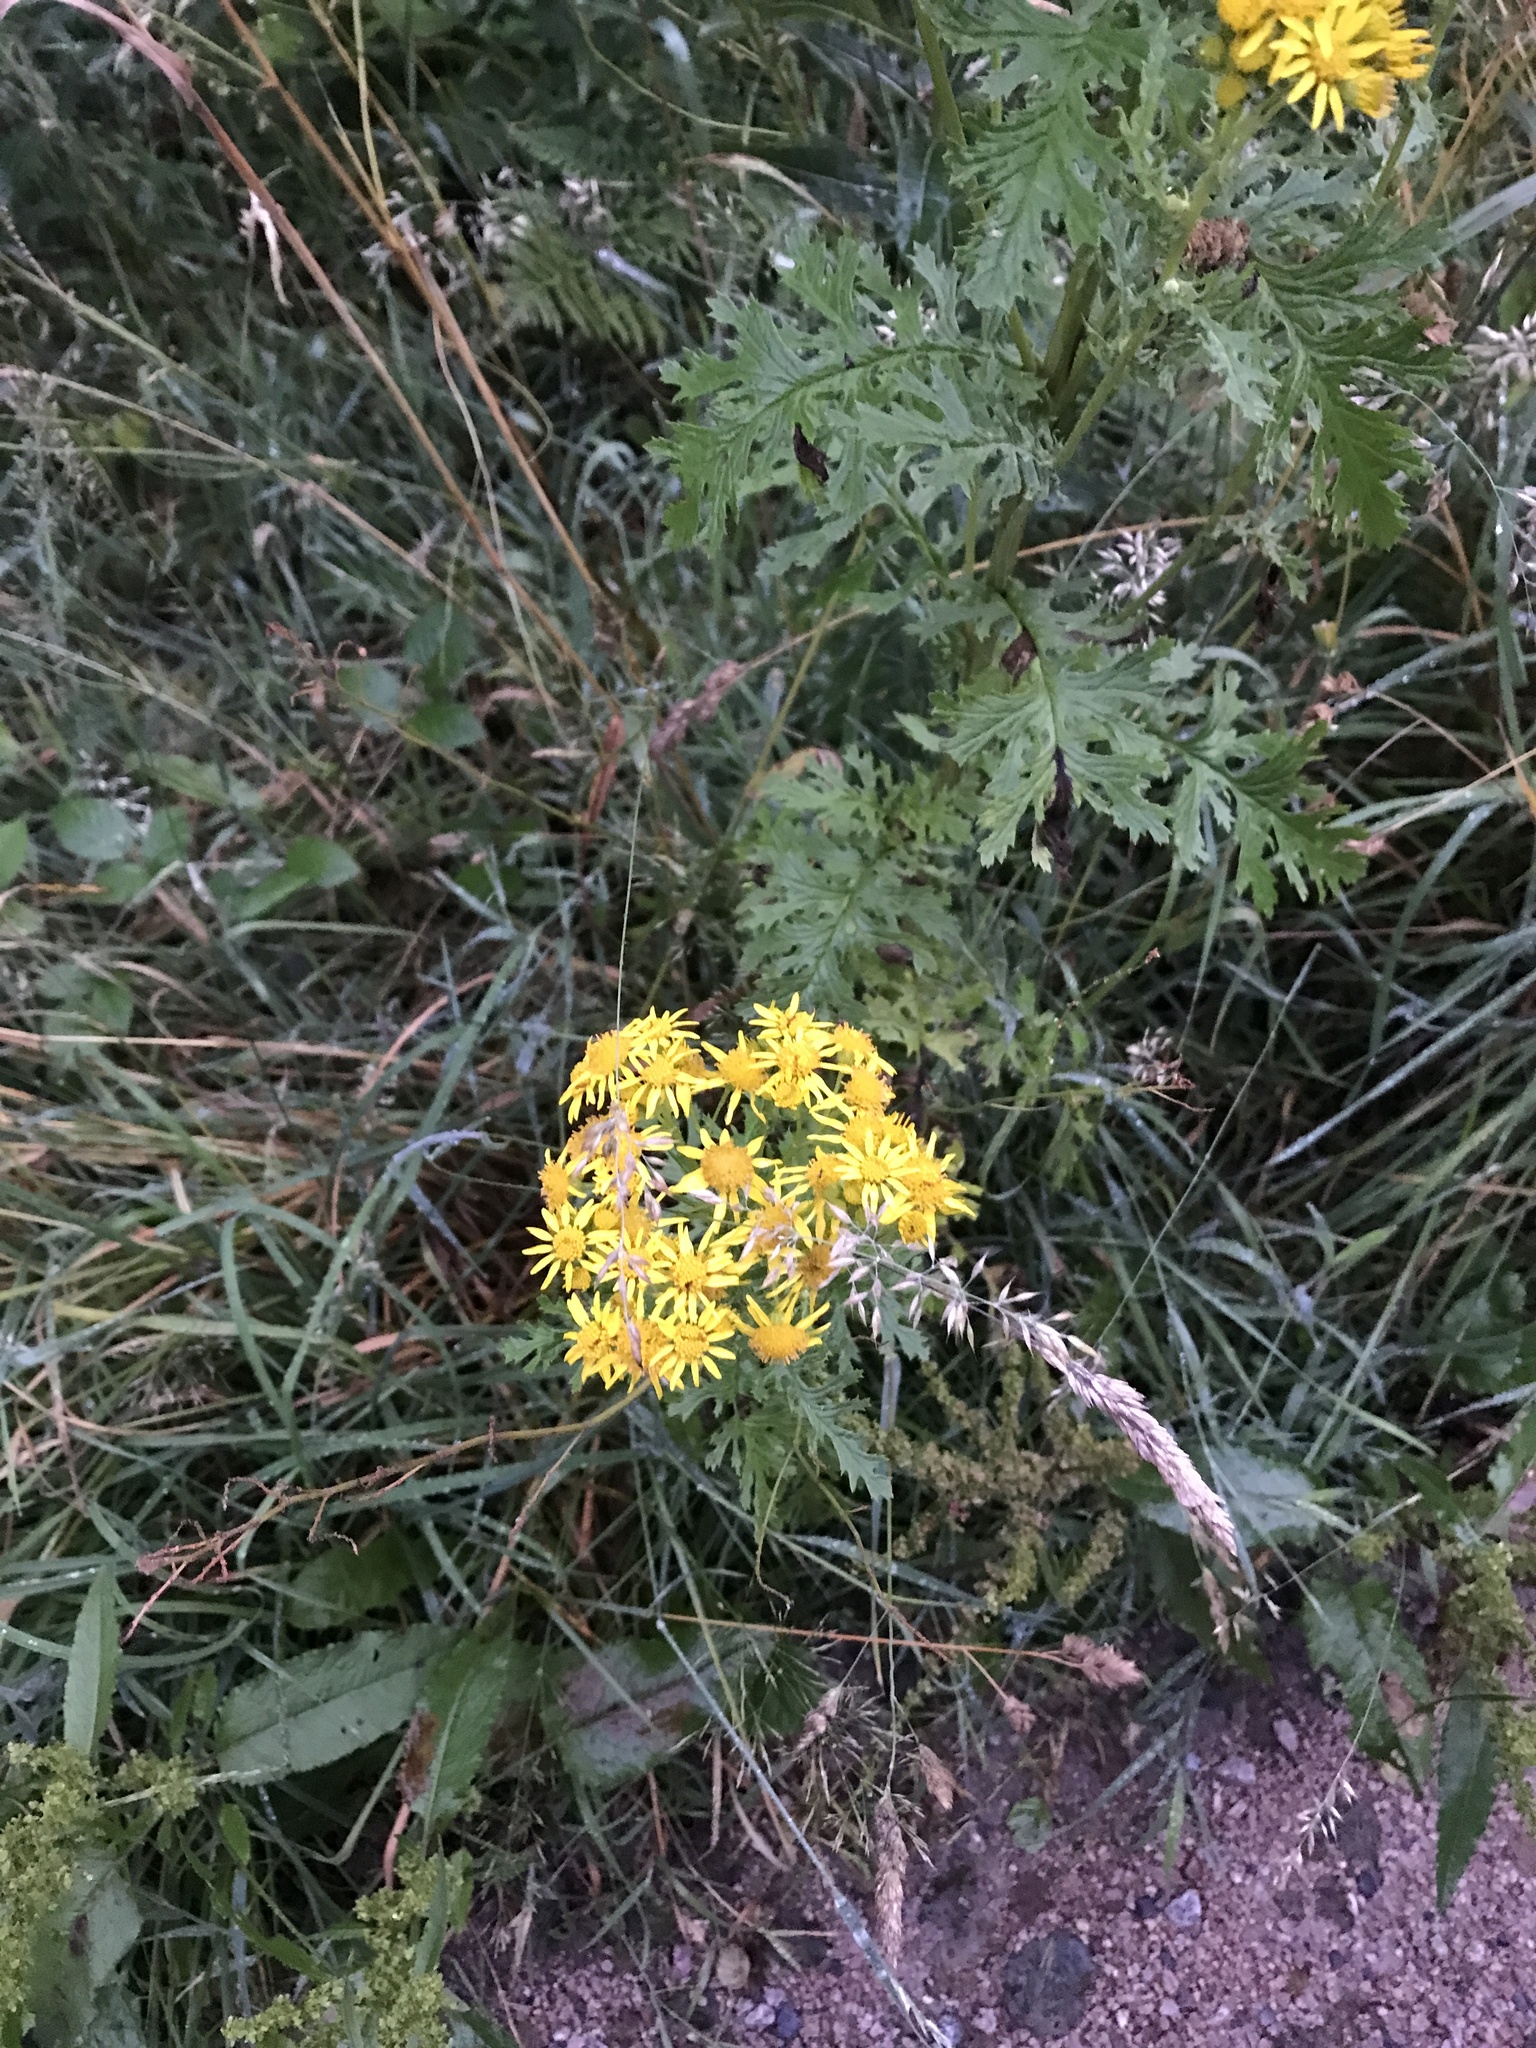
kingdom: Plantae
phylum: Tracheophyta
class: Magnoliopsida
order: Asterales
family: Asteraceae
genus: Jacobaea
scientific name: Jacobaea vulgaris
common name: Stinking willie
